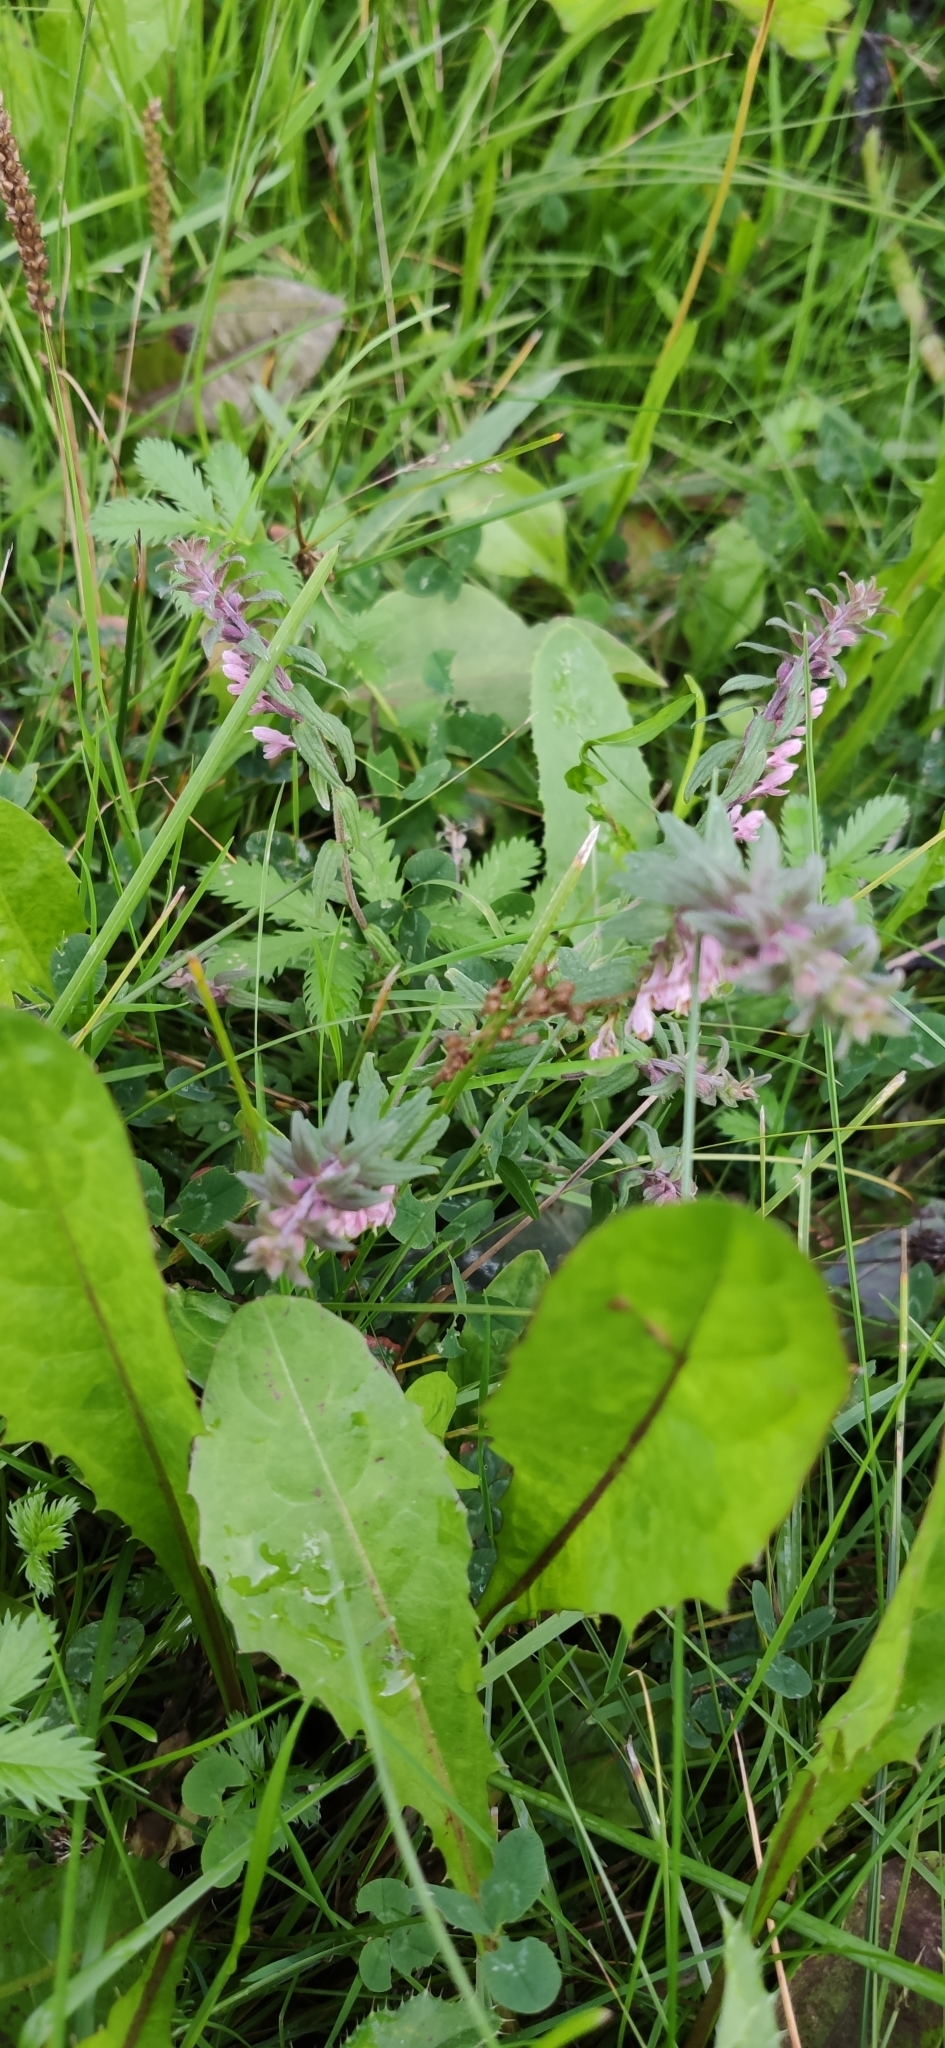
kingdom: Plantae
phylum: Tracheophyta
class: Magnoliopsida
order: Lamiales
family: Orobanchaceae
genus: Odontites
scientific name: Odontites vulgaris
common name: Broomrape
